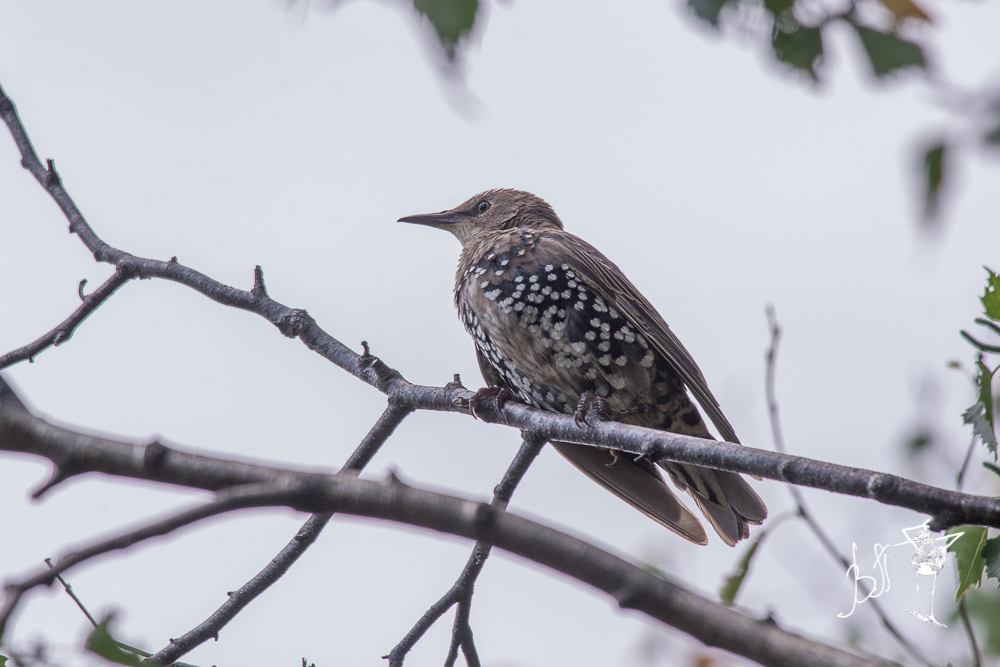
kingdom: Animalia
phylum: Chordata
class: Aves
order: Passeriformes
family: Sturnidae
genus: Sturnus
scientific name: Sturnus vulgaris
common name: Common starling
